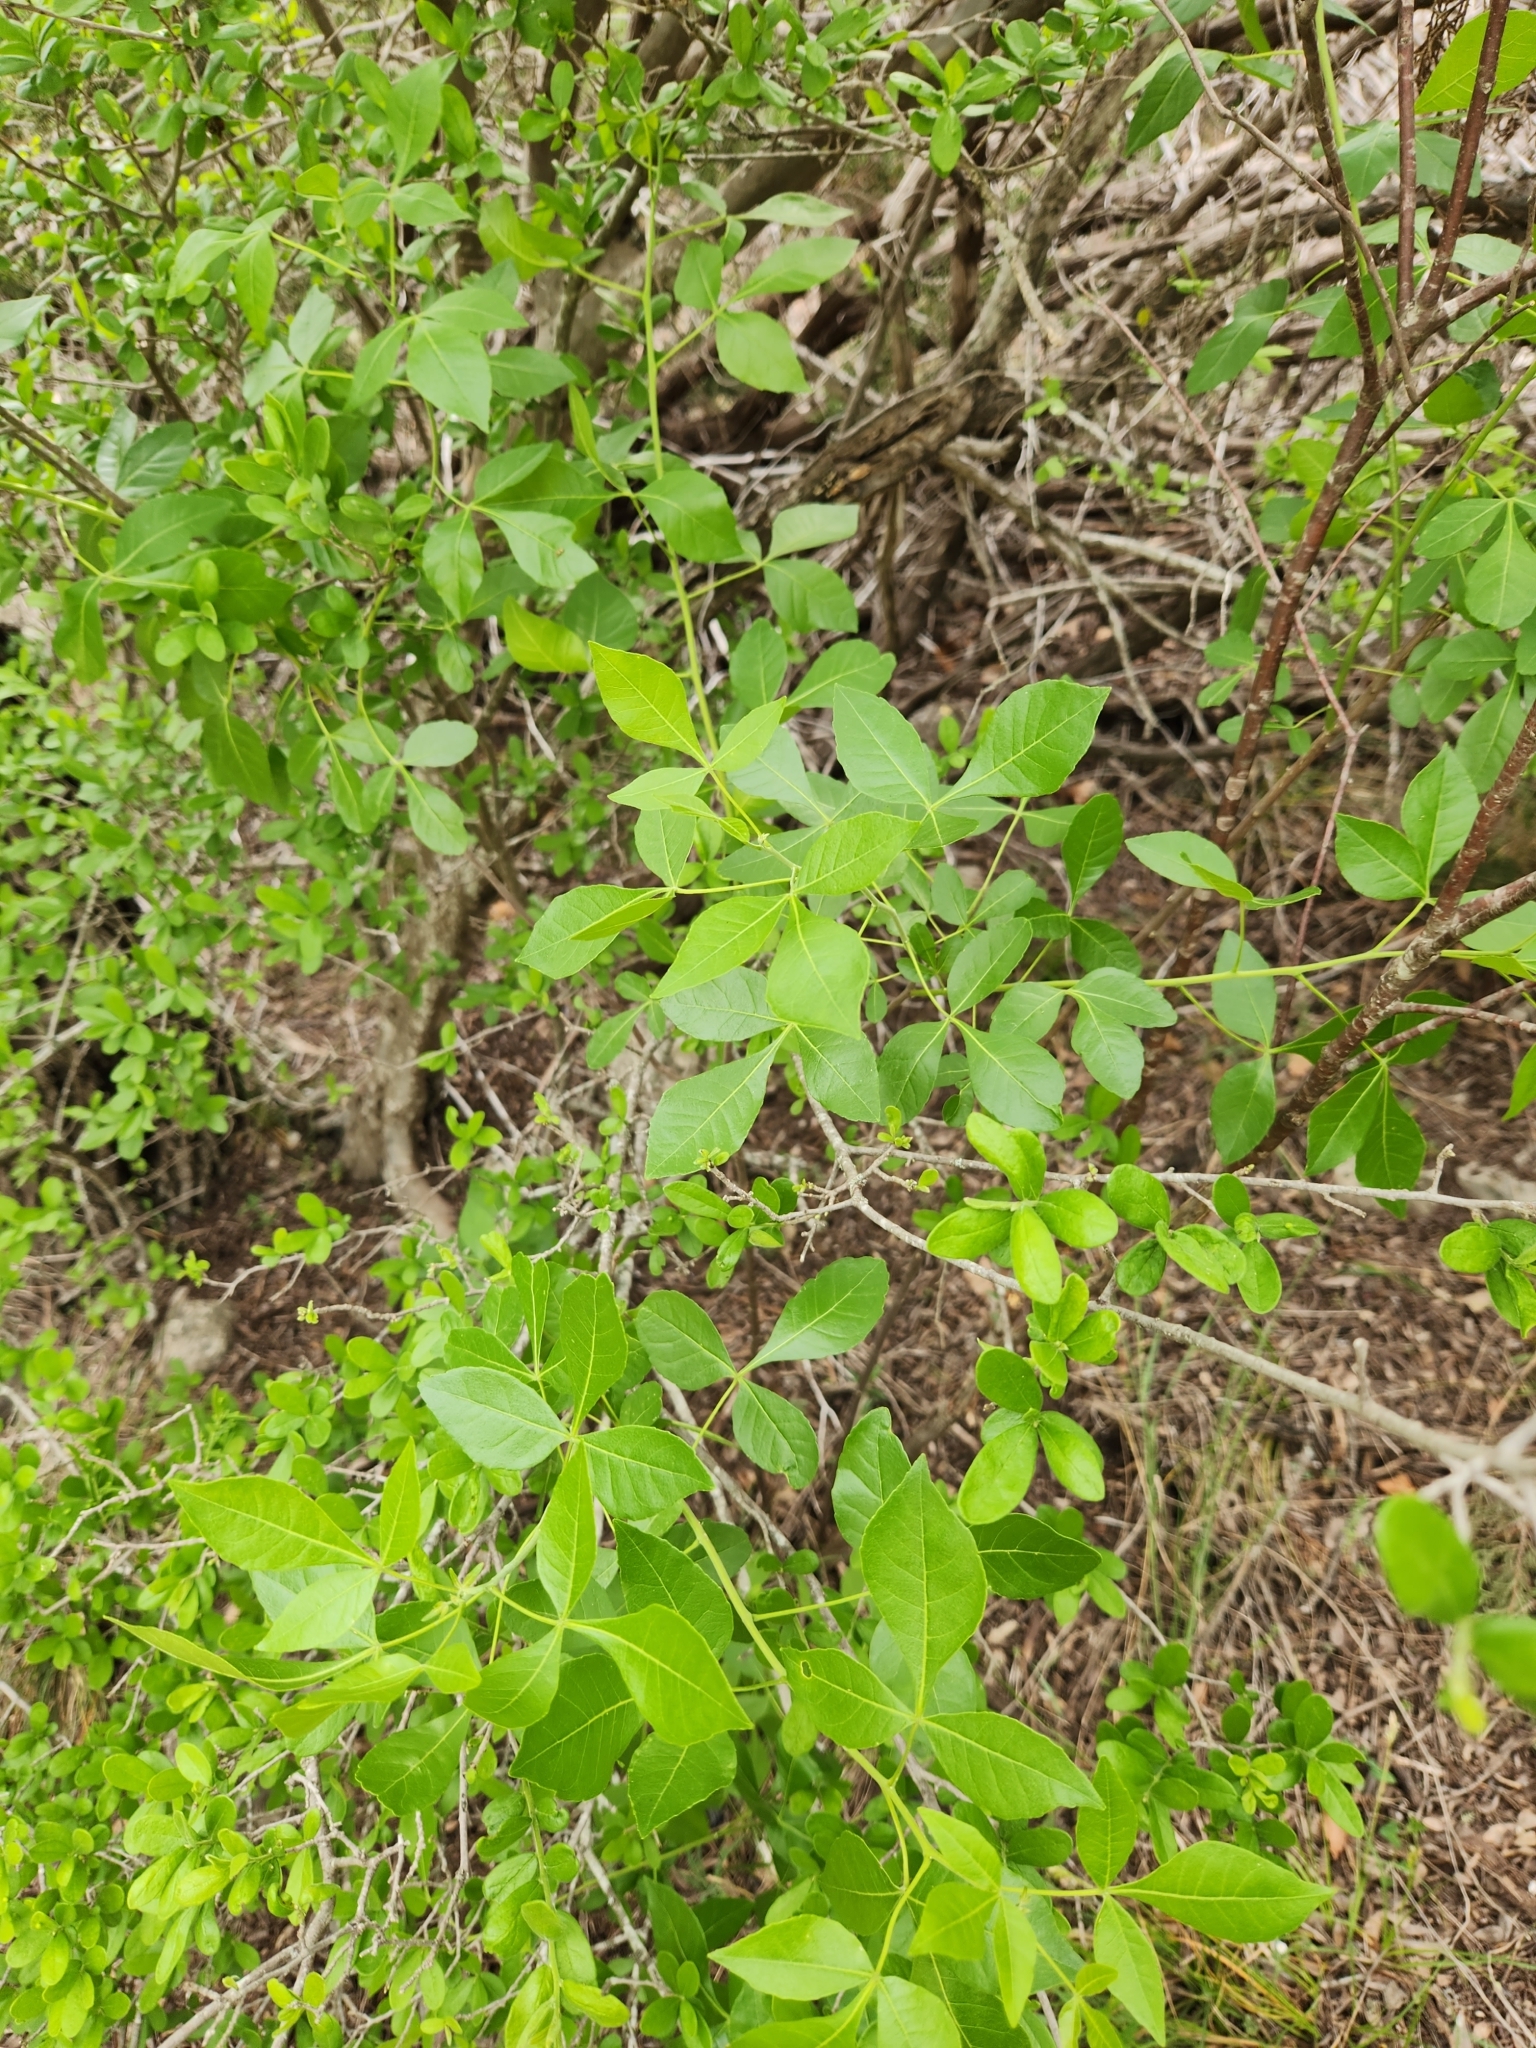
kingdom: Plantae
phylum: Tracheophyta
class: Magnoliopsida
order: Sapindales
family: Rutaceae
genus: Ptelea
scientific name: Ptelea trifoliata
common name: Common hop-tree
